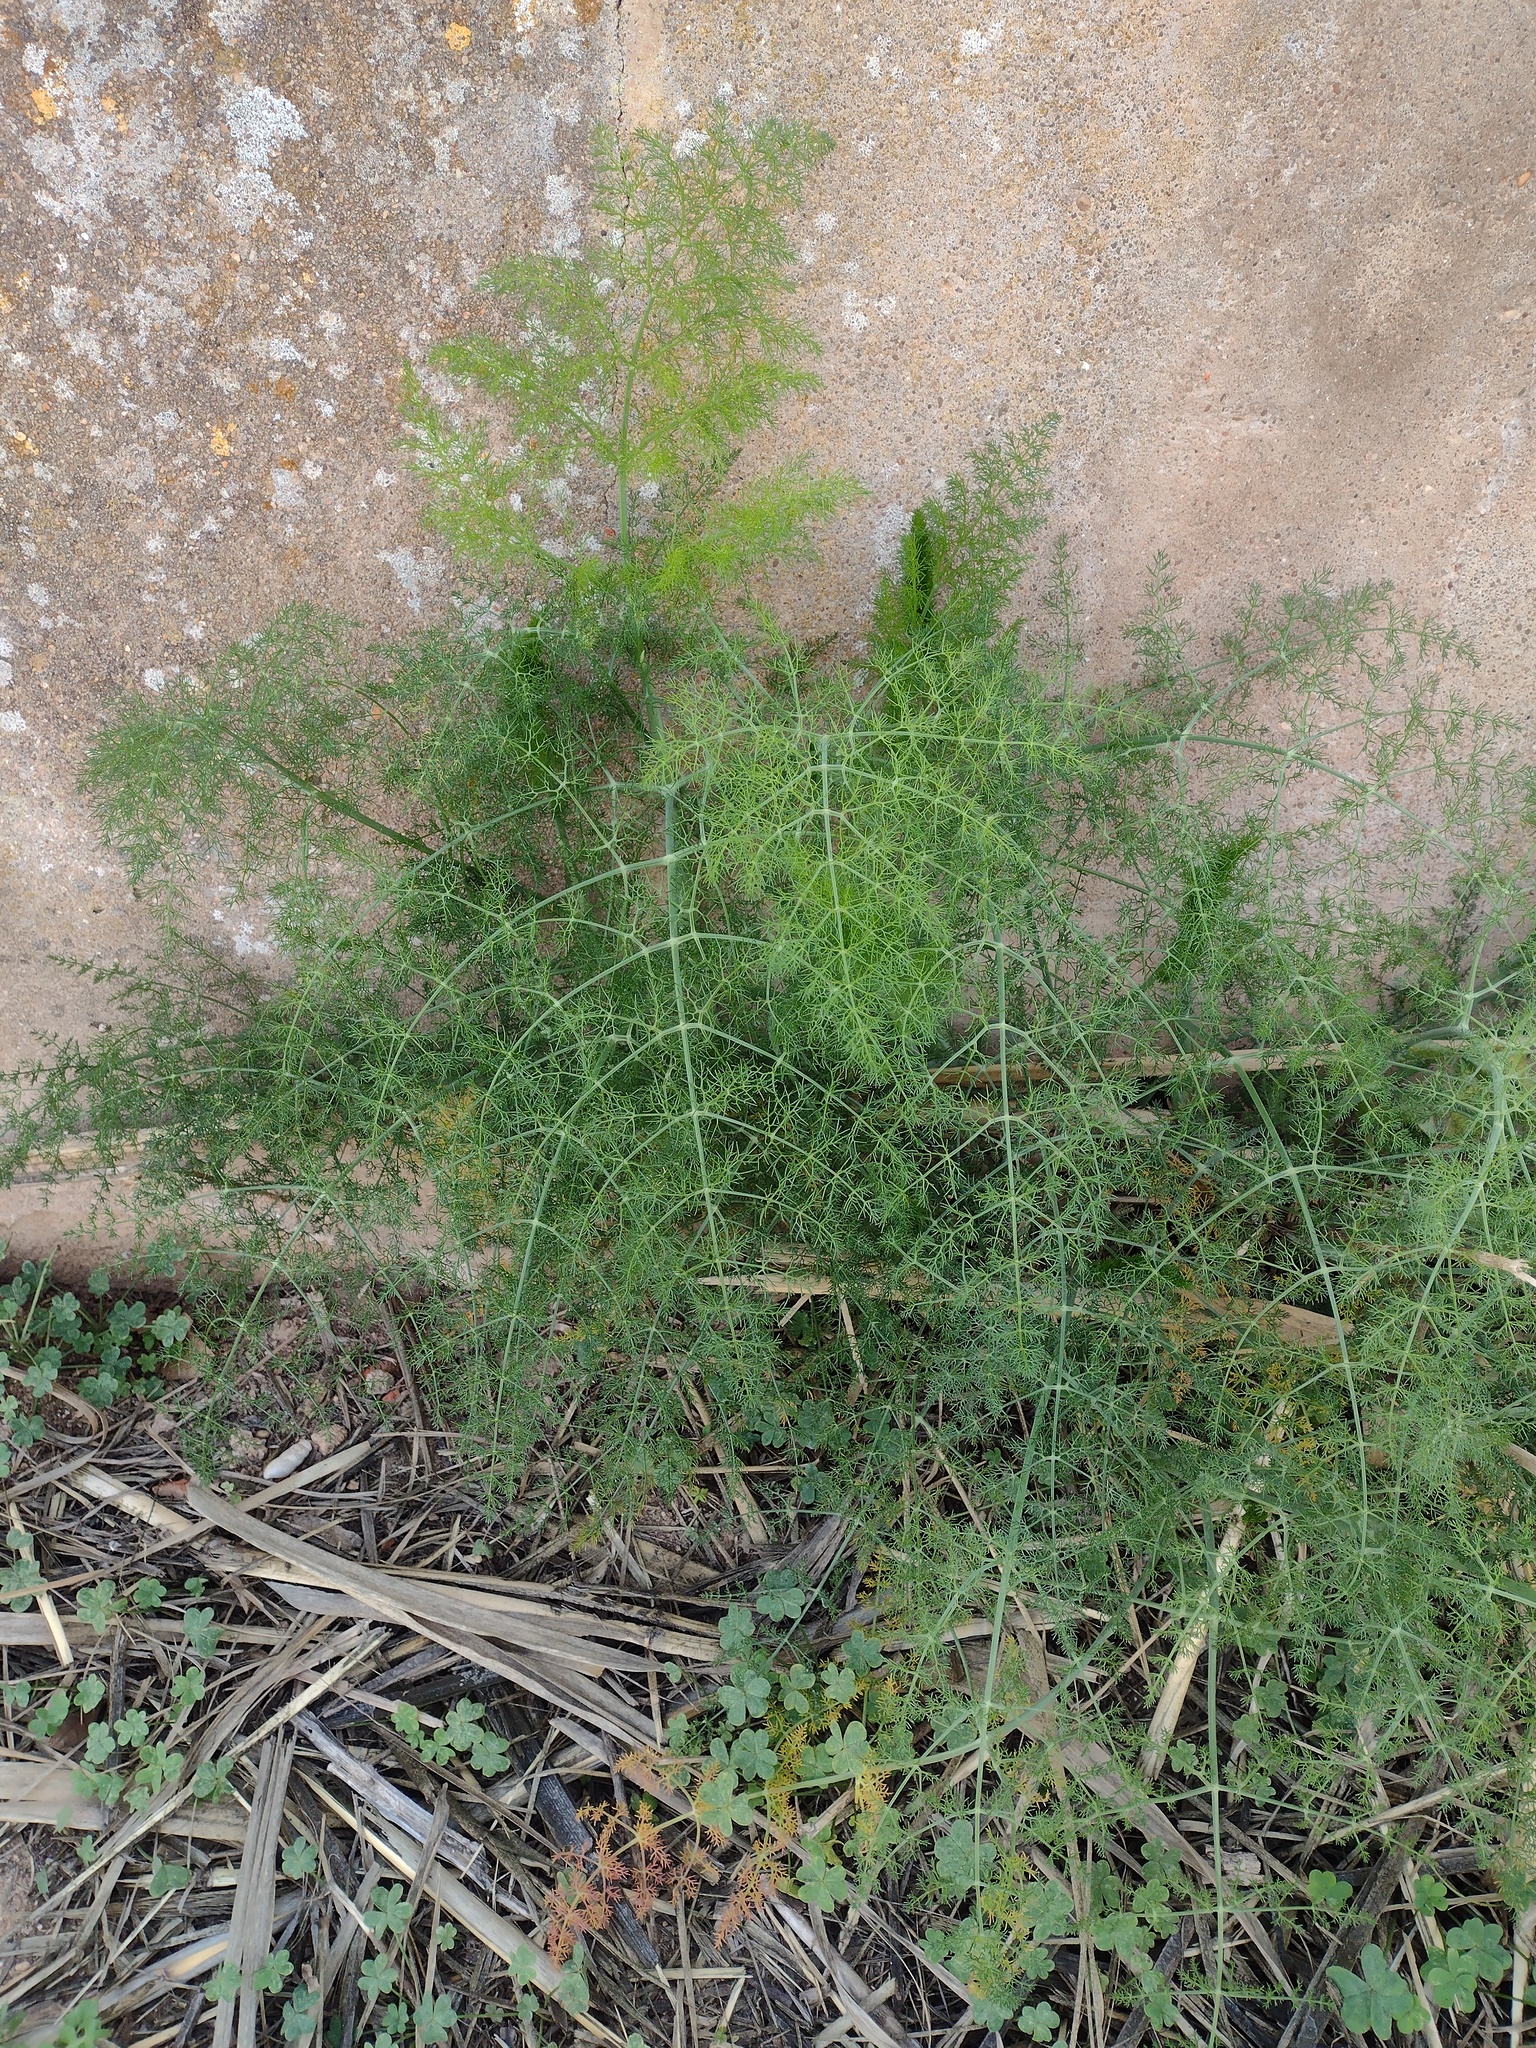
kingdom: Plantae
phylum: Tracheophyta
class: Magnoliopsida
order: Apiales
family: Apiaceae
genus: Foeniculum
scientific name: Foeniculum vulgare
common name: Fennel
